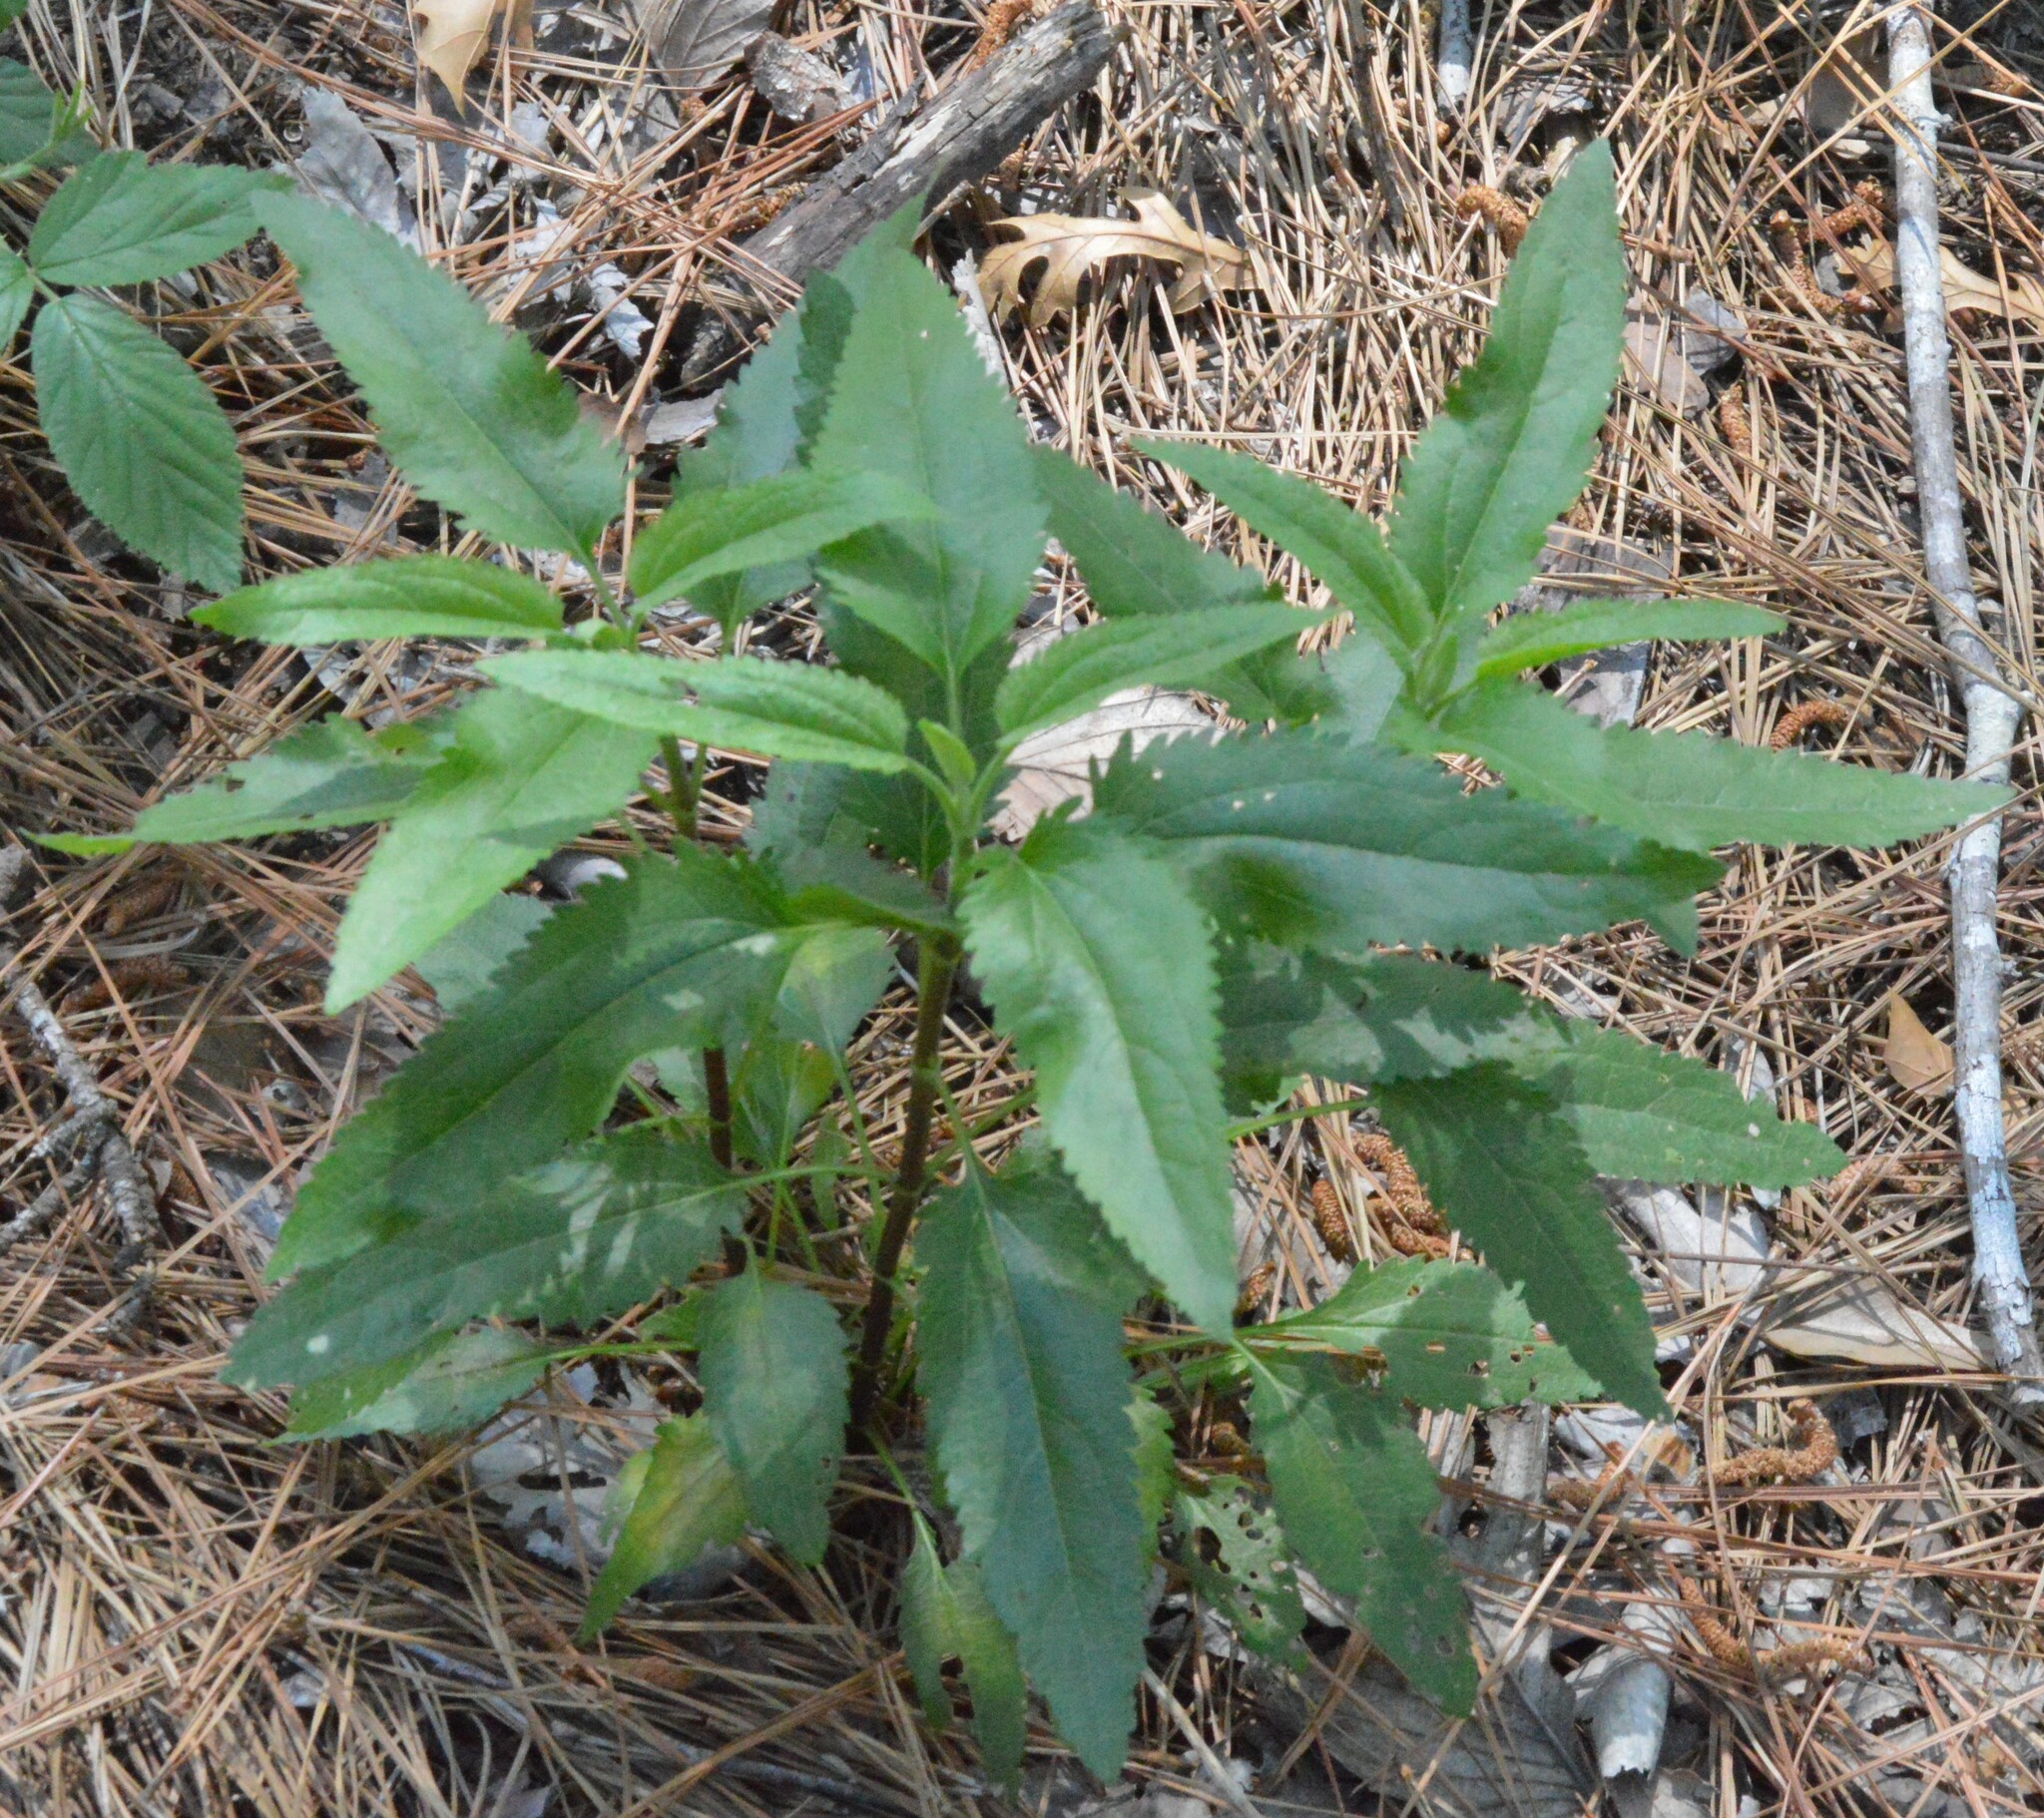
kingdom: Plantae
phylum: Tracheophyta
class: Magnoliopsida
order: Asterales
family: Asteraceae
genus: Eupatorium
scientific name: Eupatorium serotinum
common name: Late boneset
